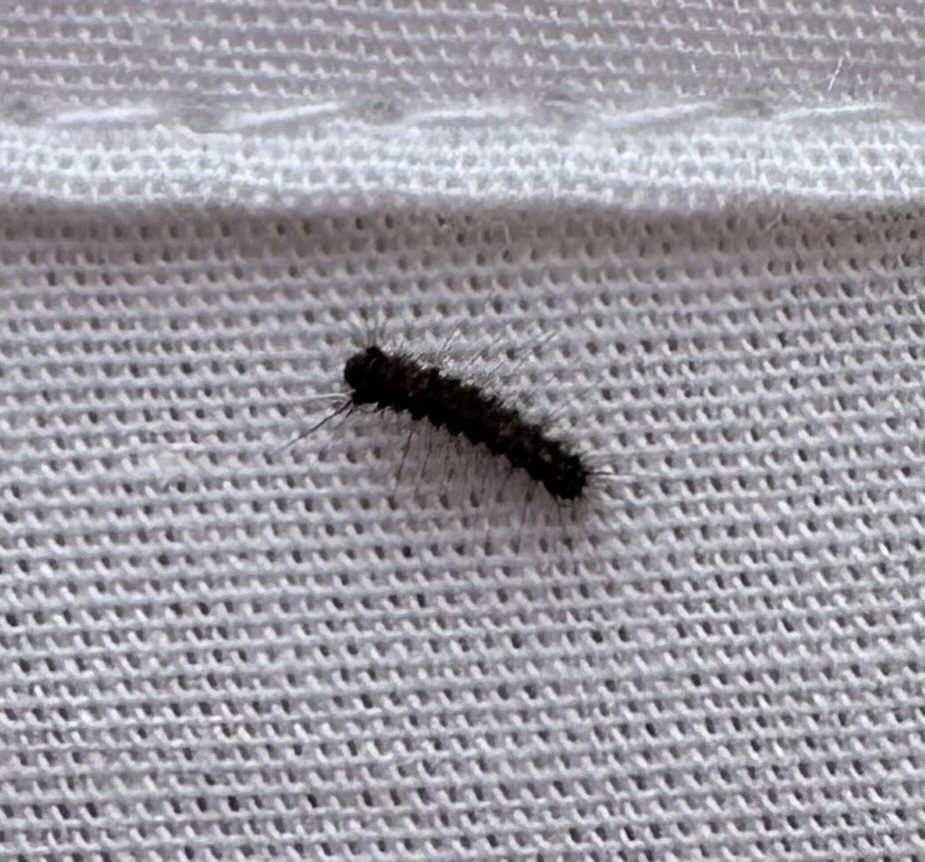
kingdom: Animalia
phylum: Arthropoda
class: Insecta
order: Lepidoptera
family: Erebidae
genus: Lymantria
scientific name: Lymantria dispar
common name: Gypsy moth
